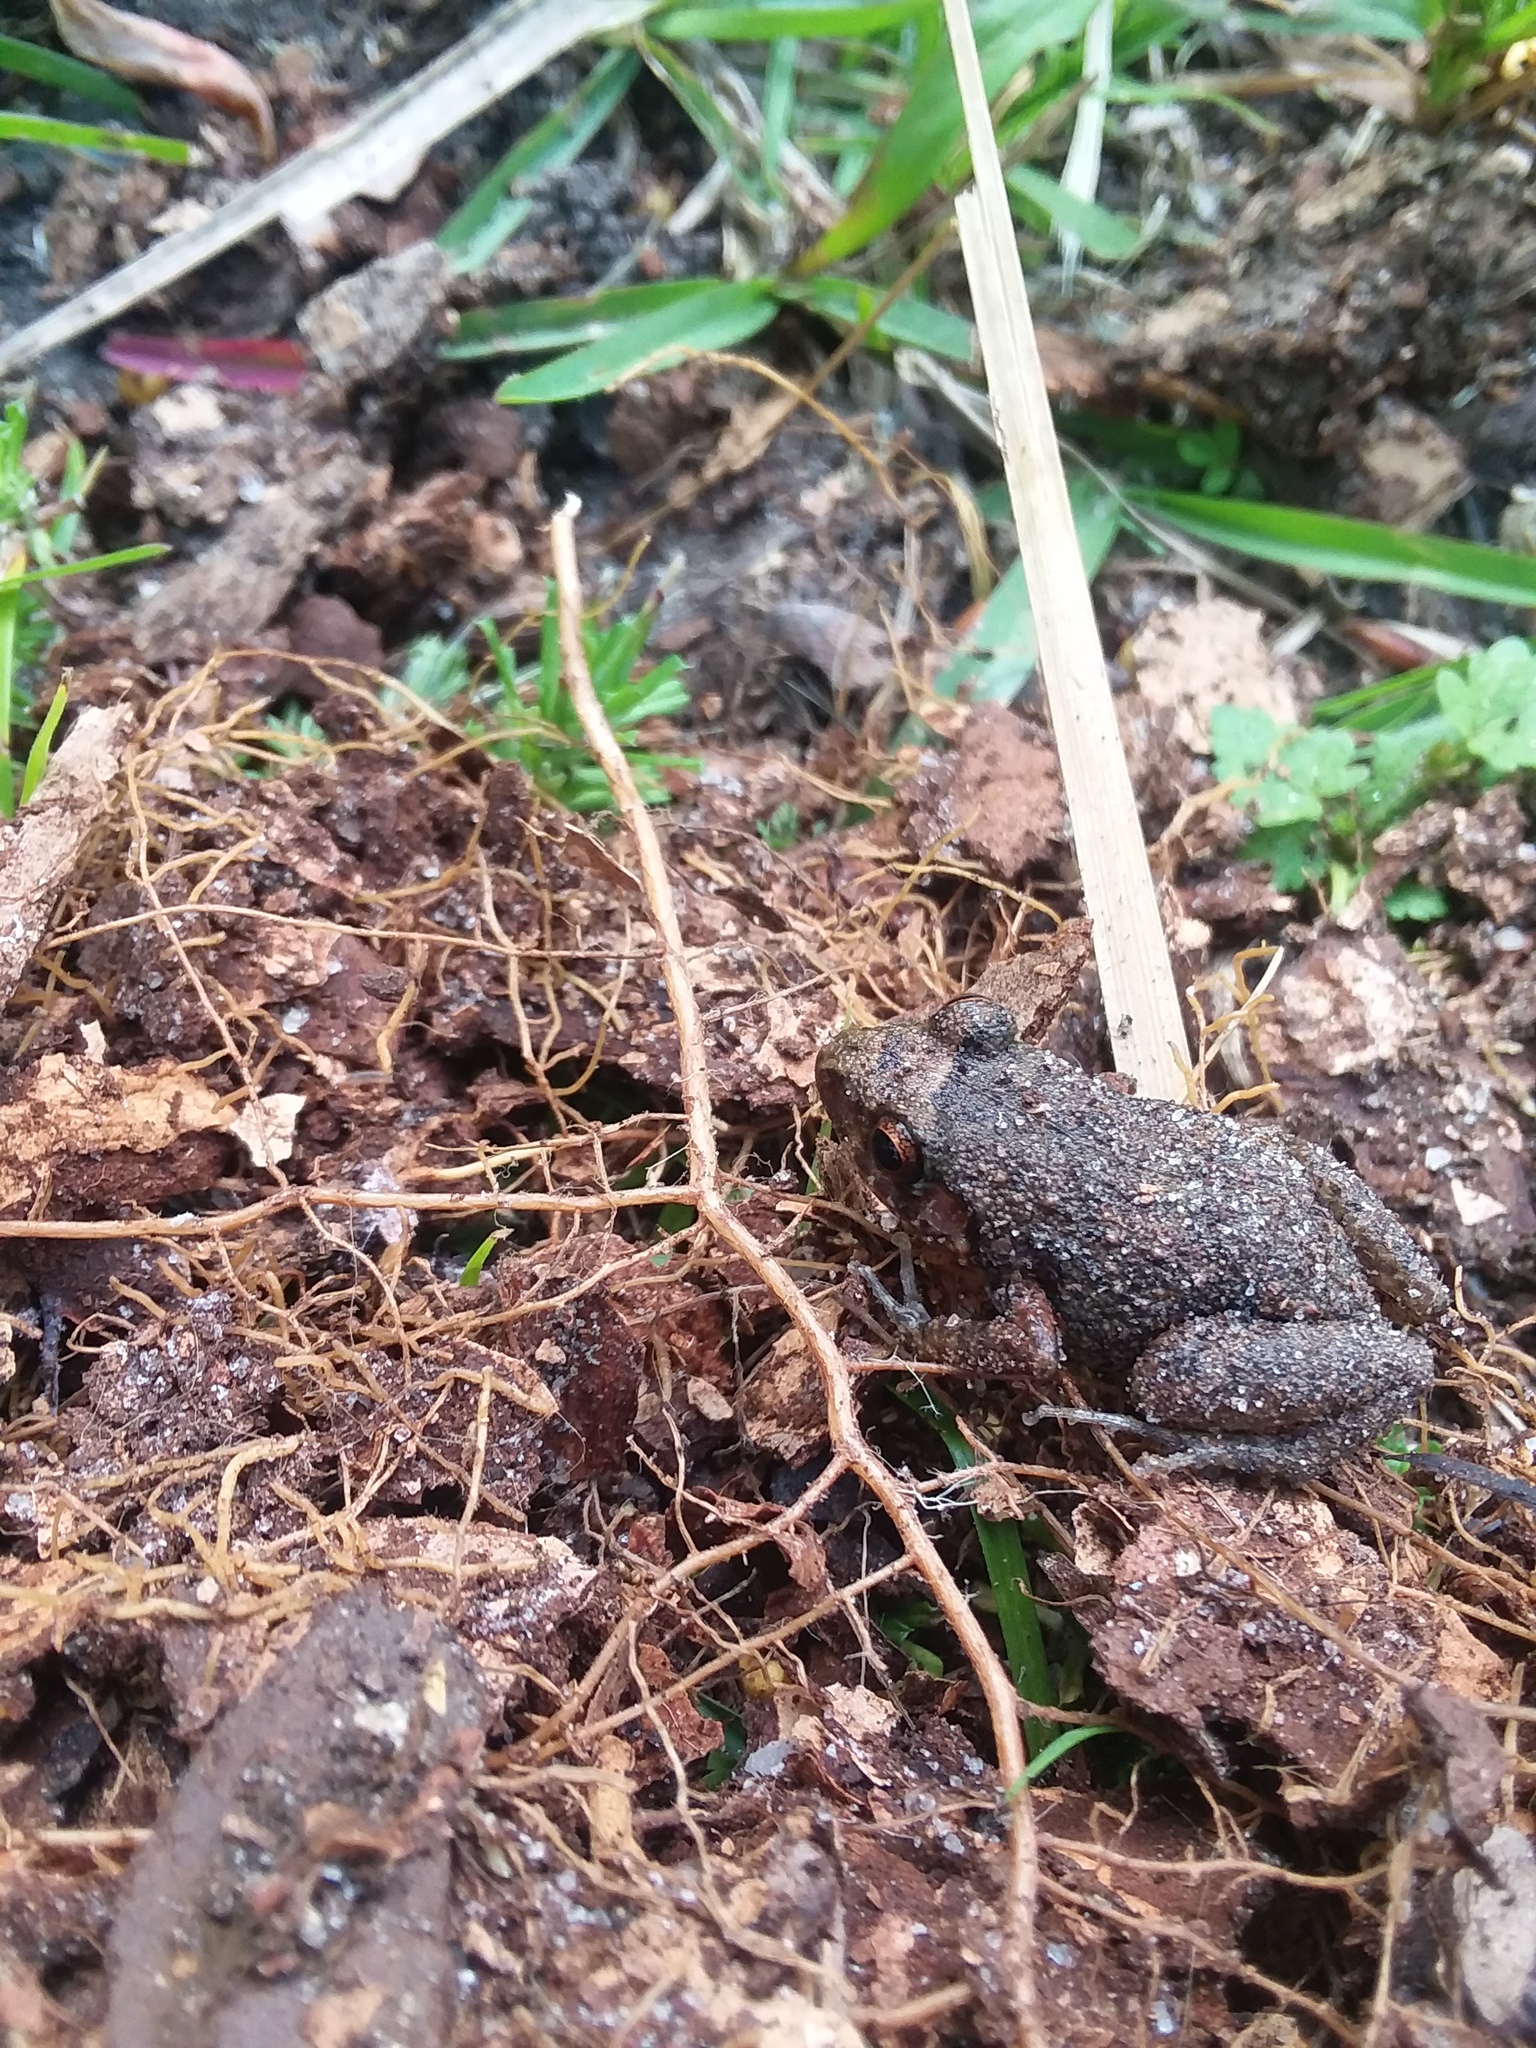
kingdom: Animalia
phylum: Chordata
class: Amphibia
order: Anura
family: Eleutherodactylidae
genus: Eleutherodactylus
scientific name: Eleutherodactylus planirostris
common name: Greenhouse frog
